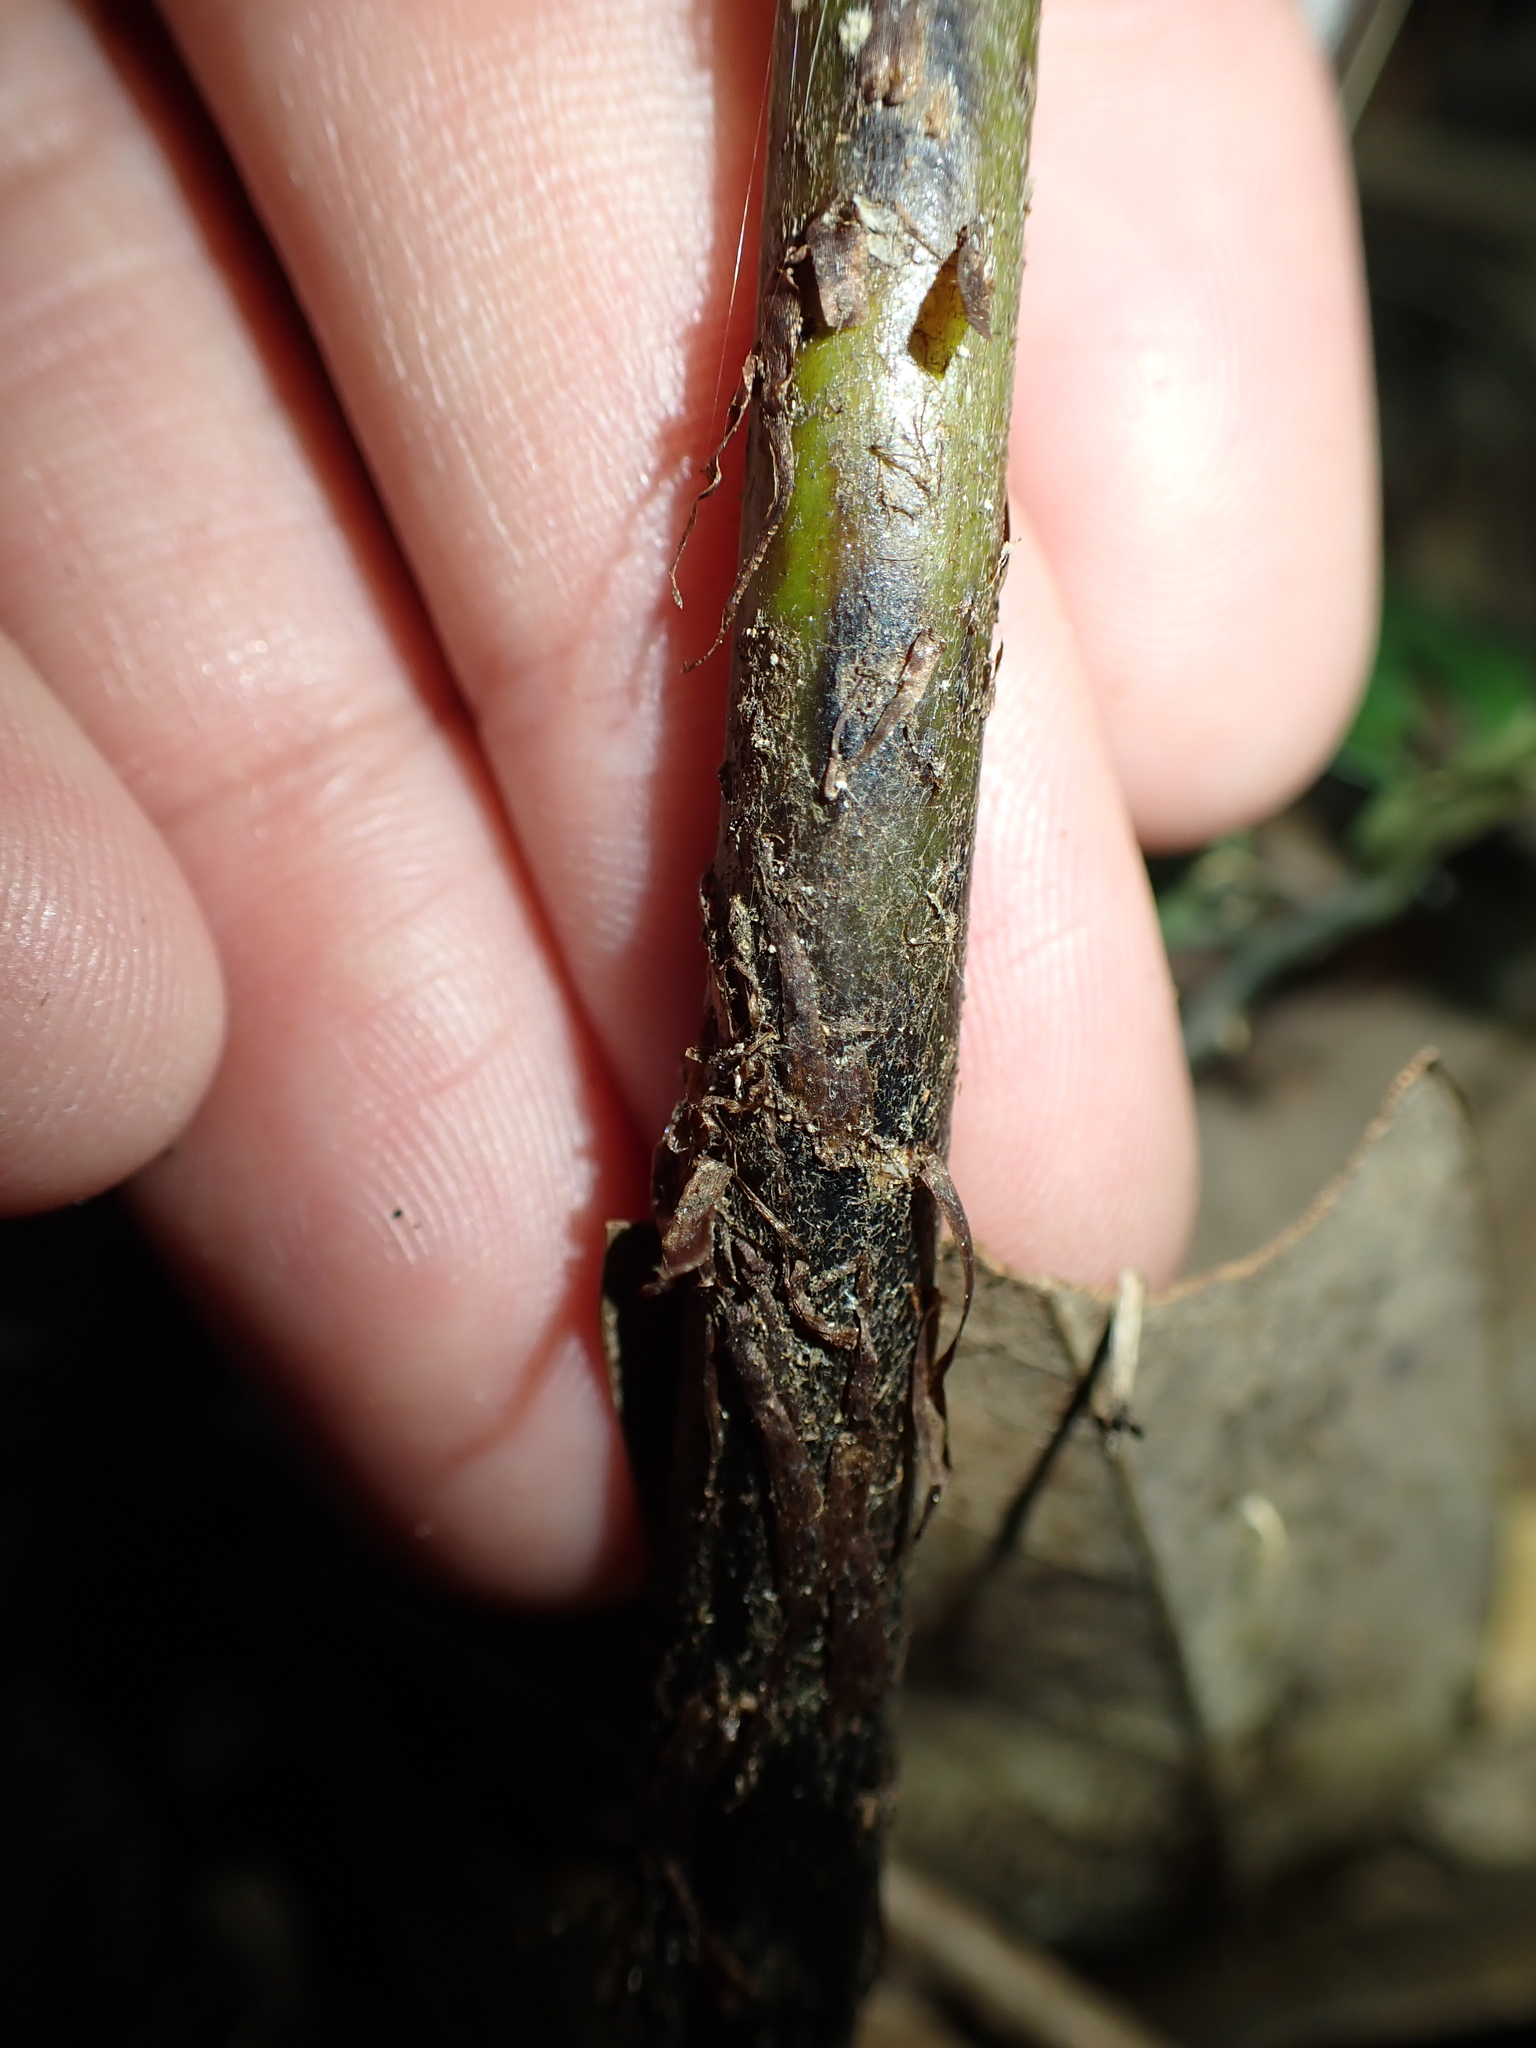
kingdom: Plantae
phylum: Tracheophyta
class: Polypodiopsida
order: Polypodiales
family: Athyriaceae
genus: Diplazium
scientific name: Diplazium petri
